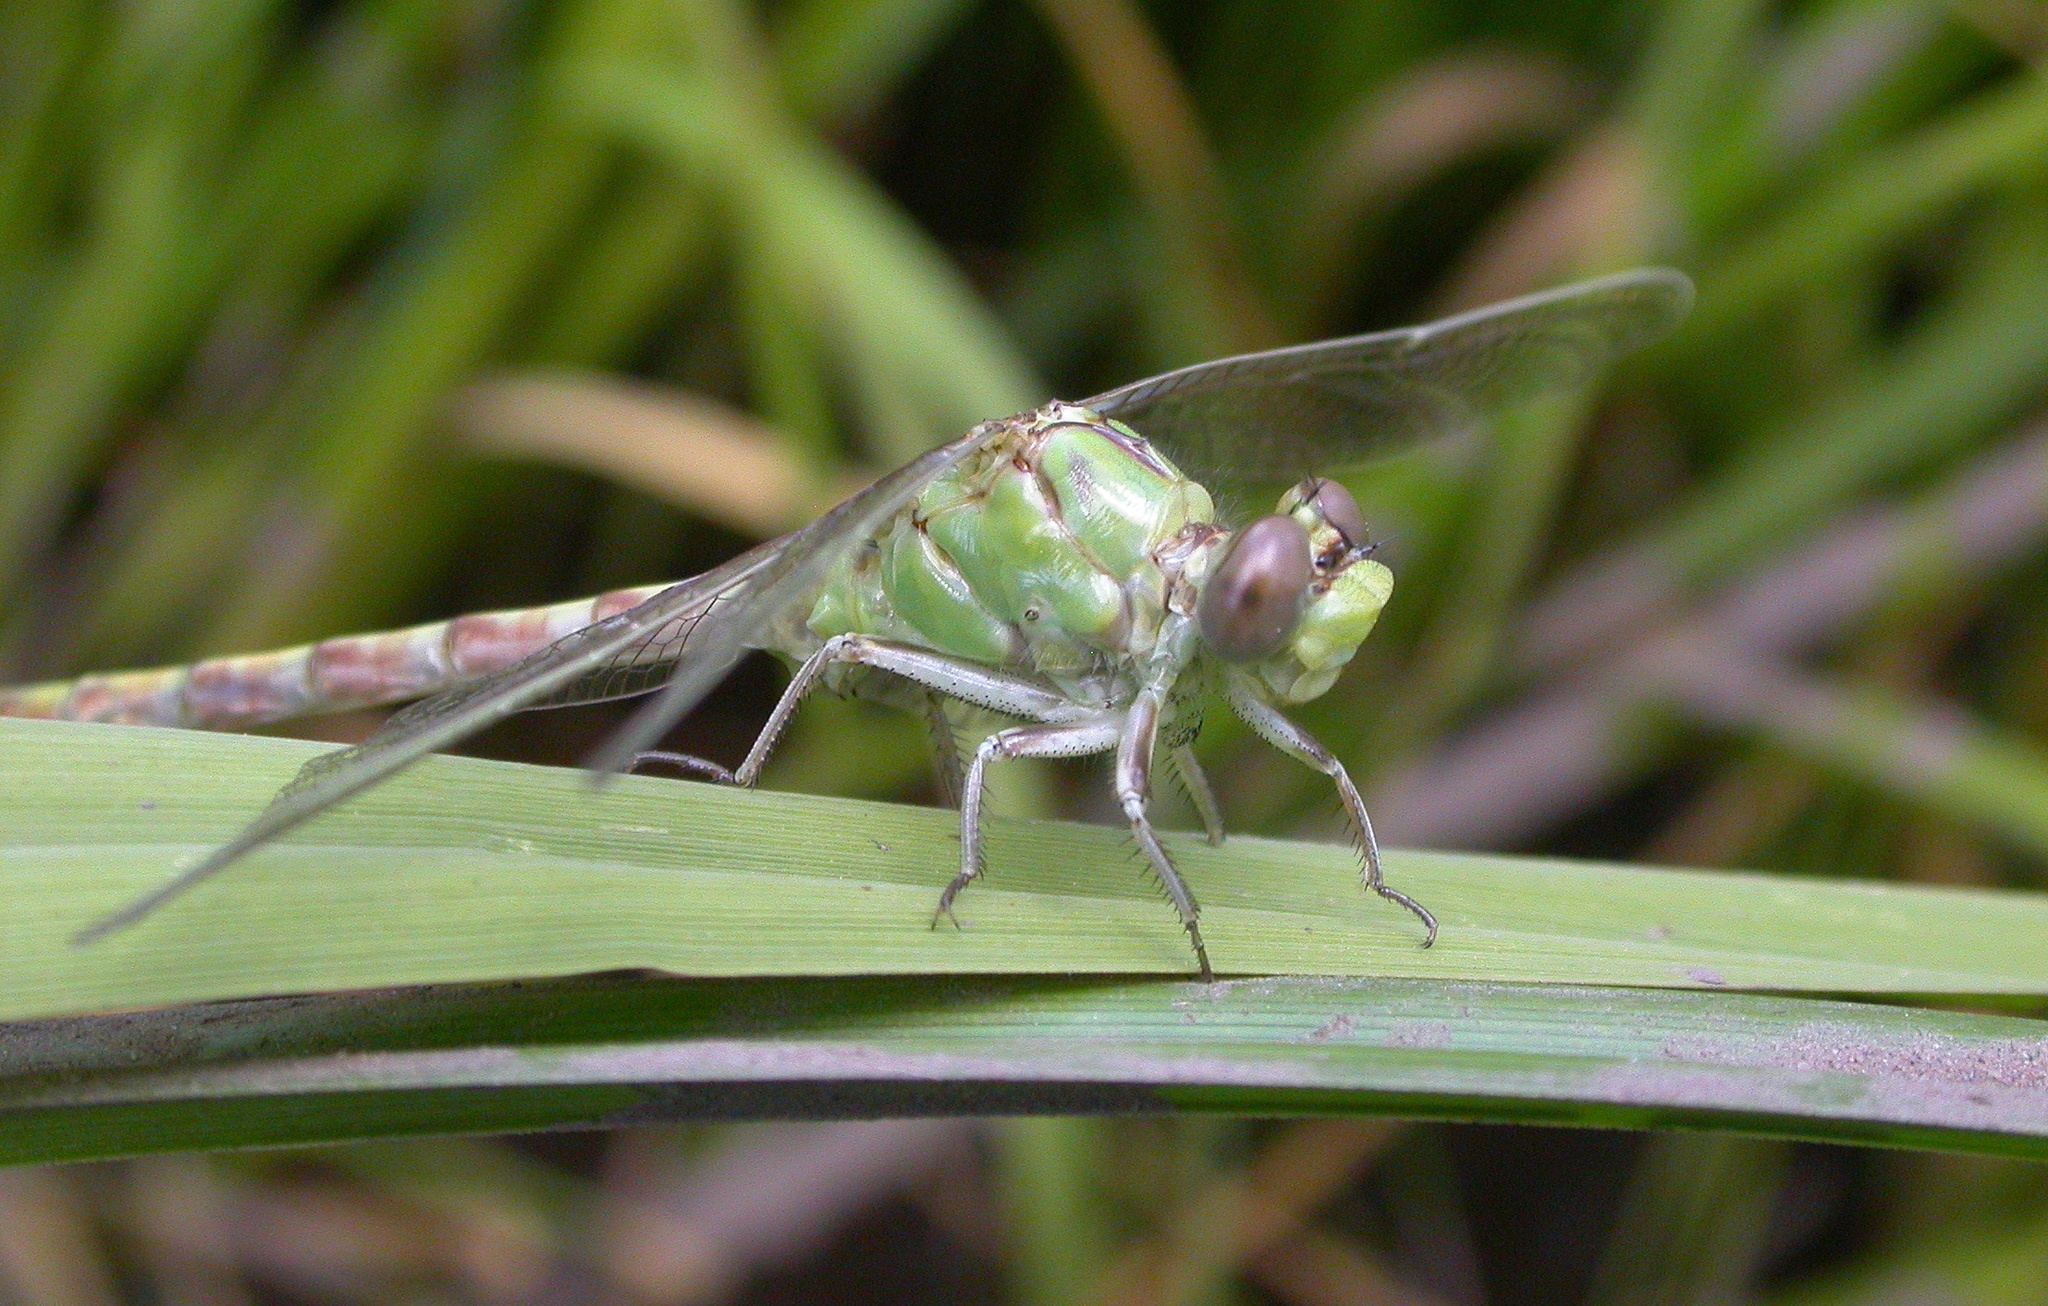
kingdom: Animalia
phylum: Arthropoda
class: Insecta
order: Odonata
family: Gomphidae
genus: Ophiogomphus
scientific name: Ophiogomphus severus
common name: Pale snaketail
